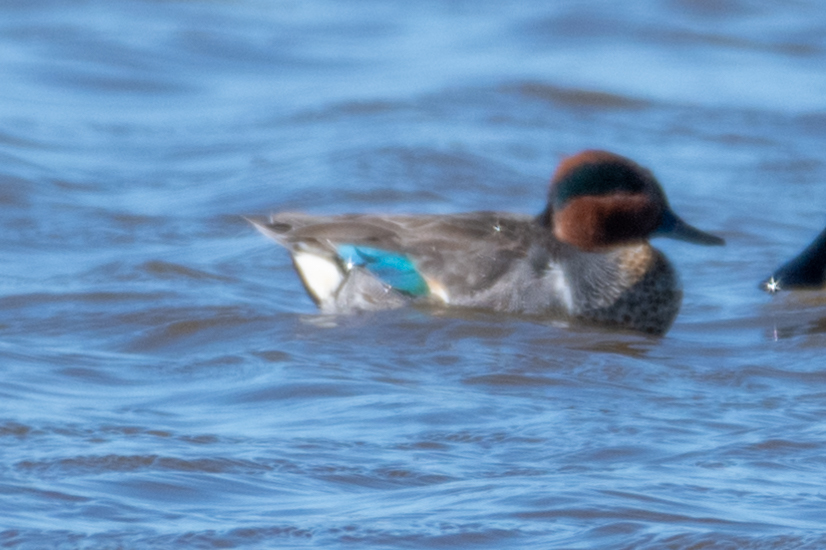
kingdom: Animalia
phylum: Chordata
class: Aves
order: Anseriformes
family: Anatidae
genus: Anas
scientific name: Anas crecca
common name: Eurasian teal
